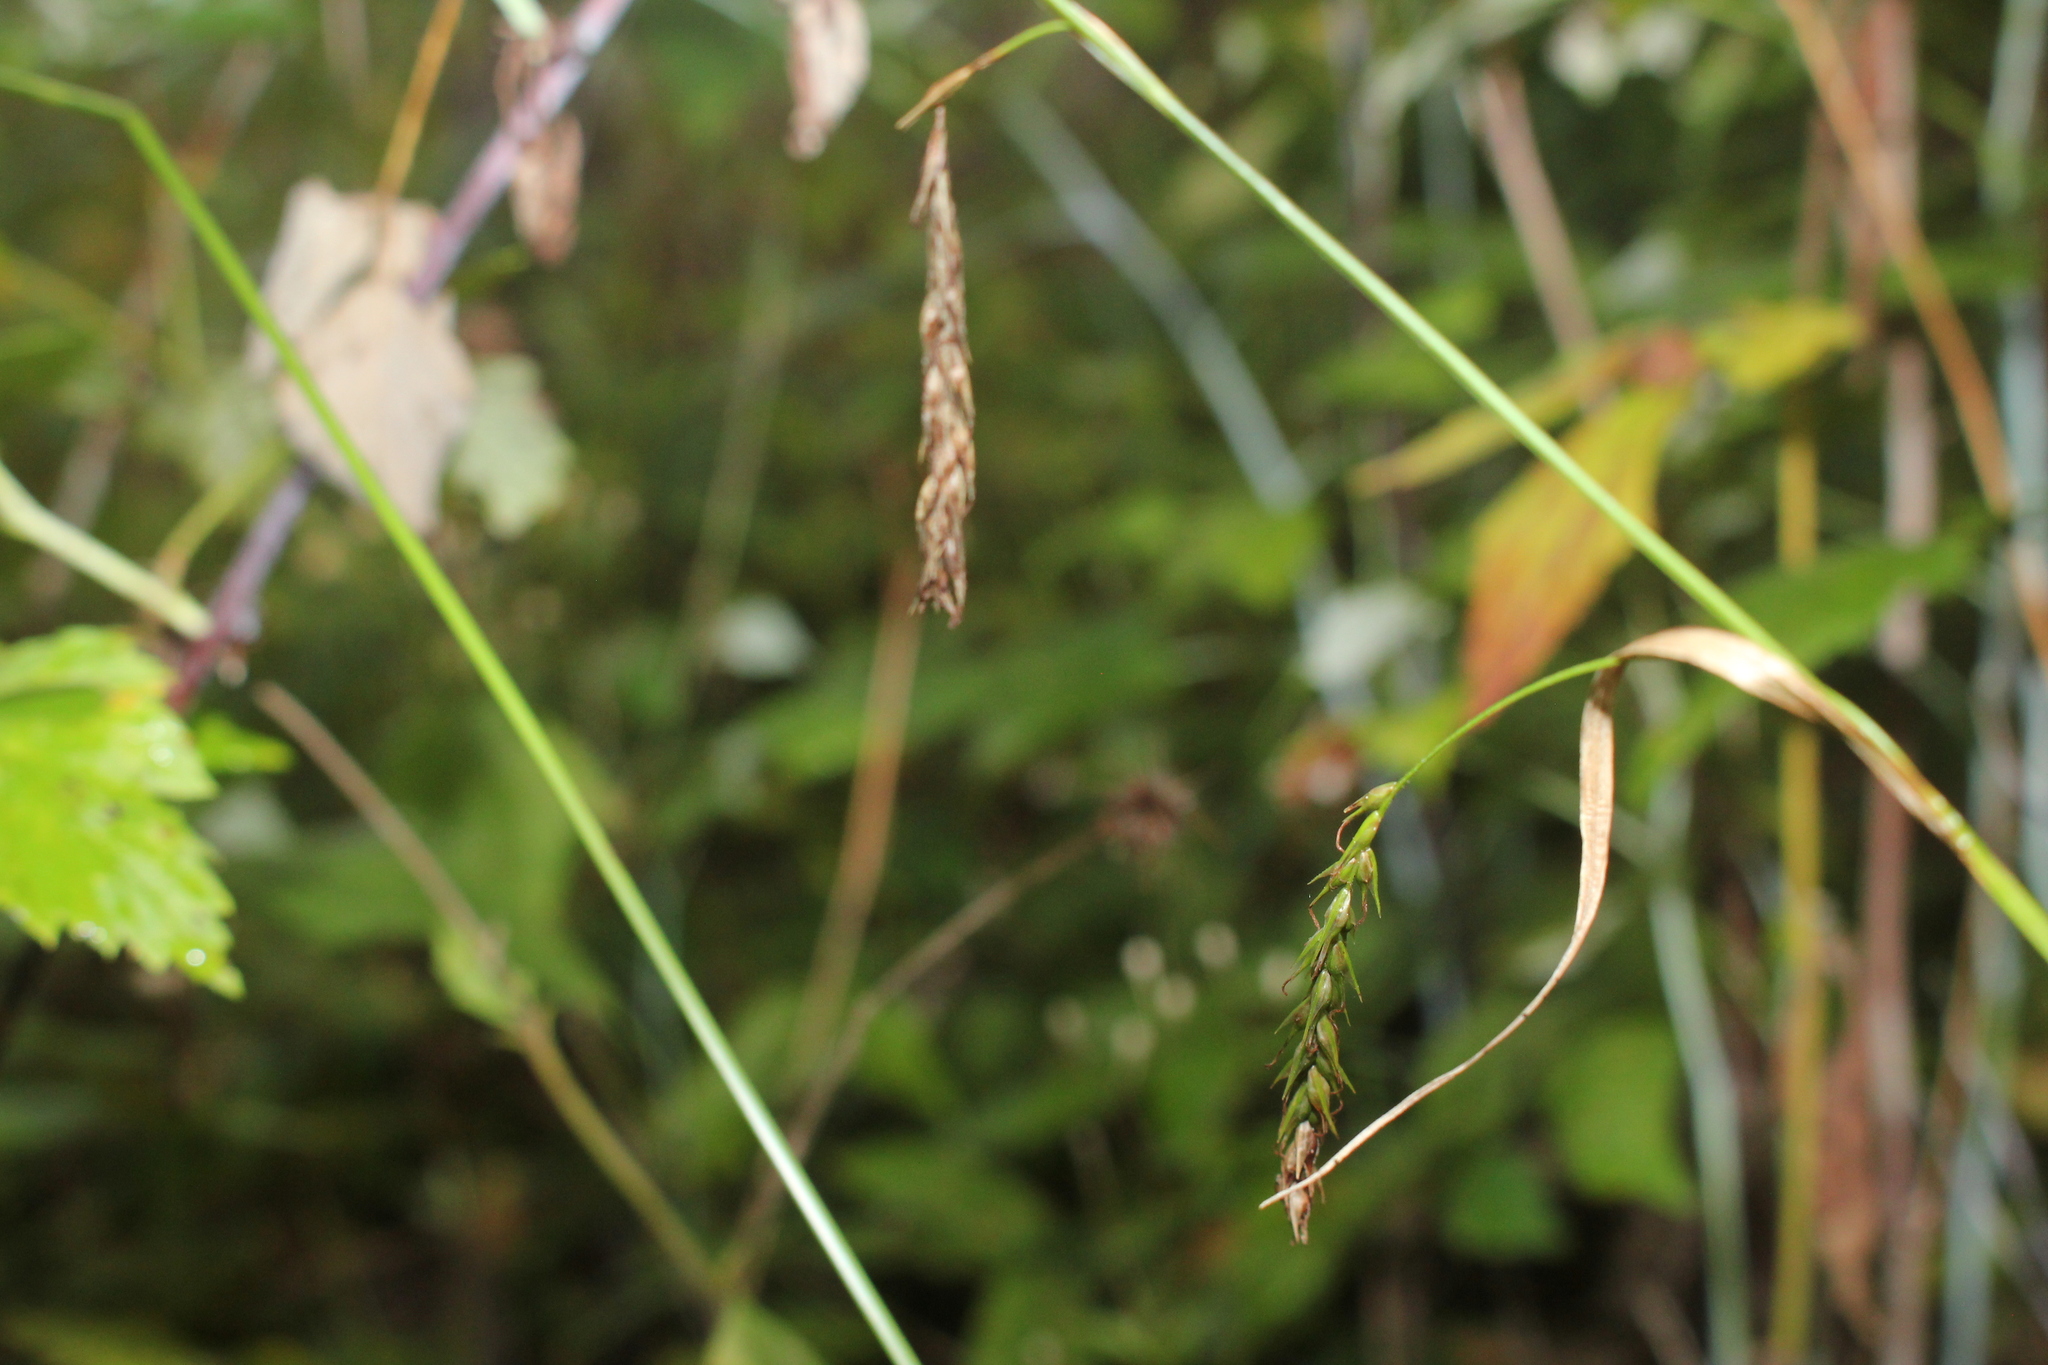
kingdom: Plantae
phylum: Tracheophyta
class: Liliopsida
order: Poales
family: Cyperaceae
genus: Carex
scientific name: Carex sylvatica
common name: Wood-sedge
